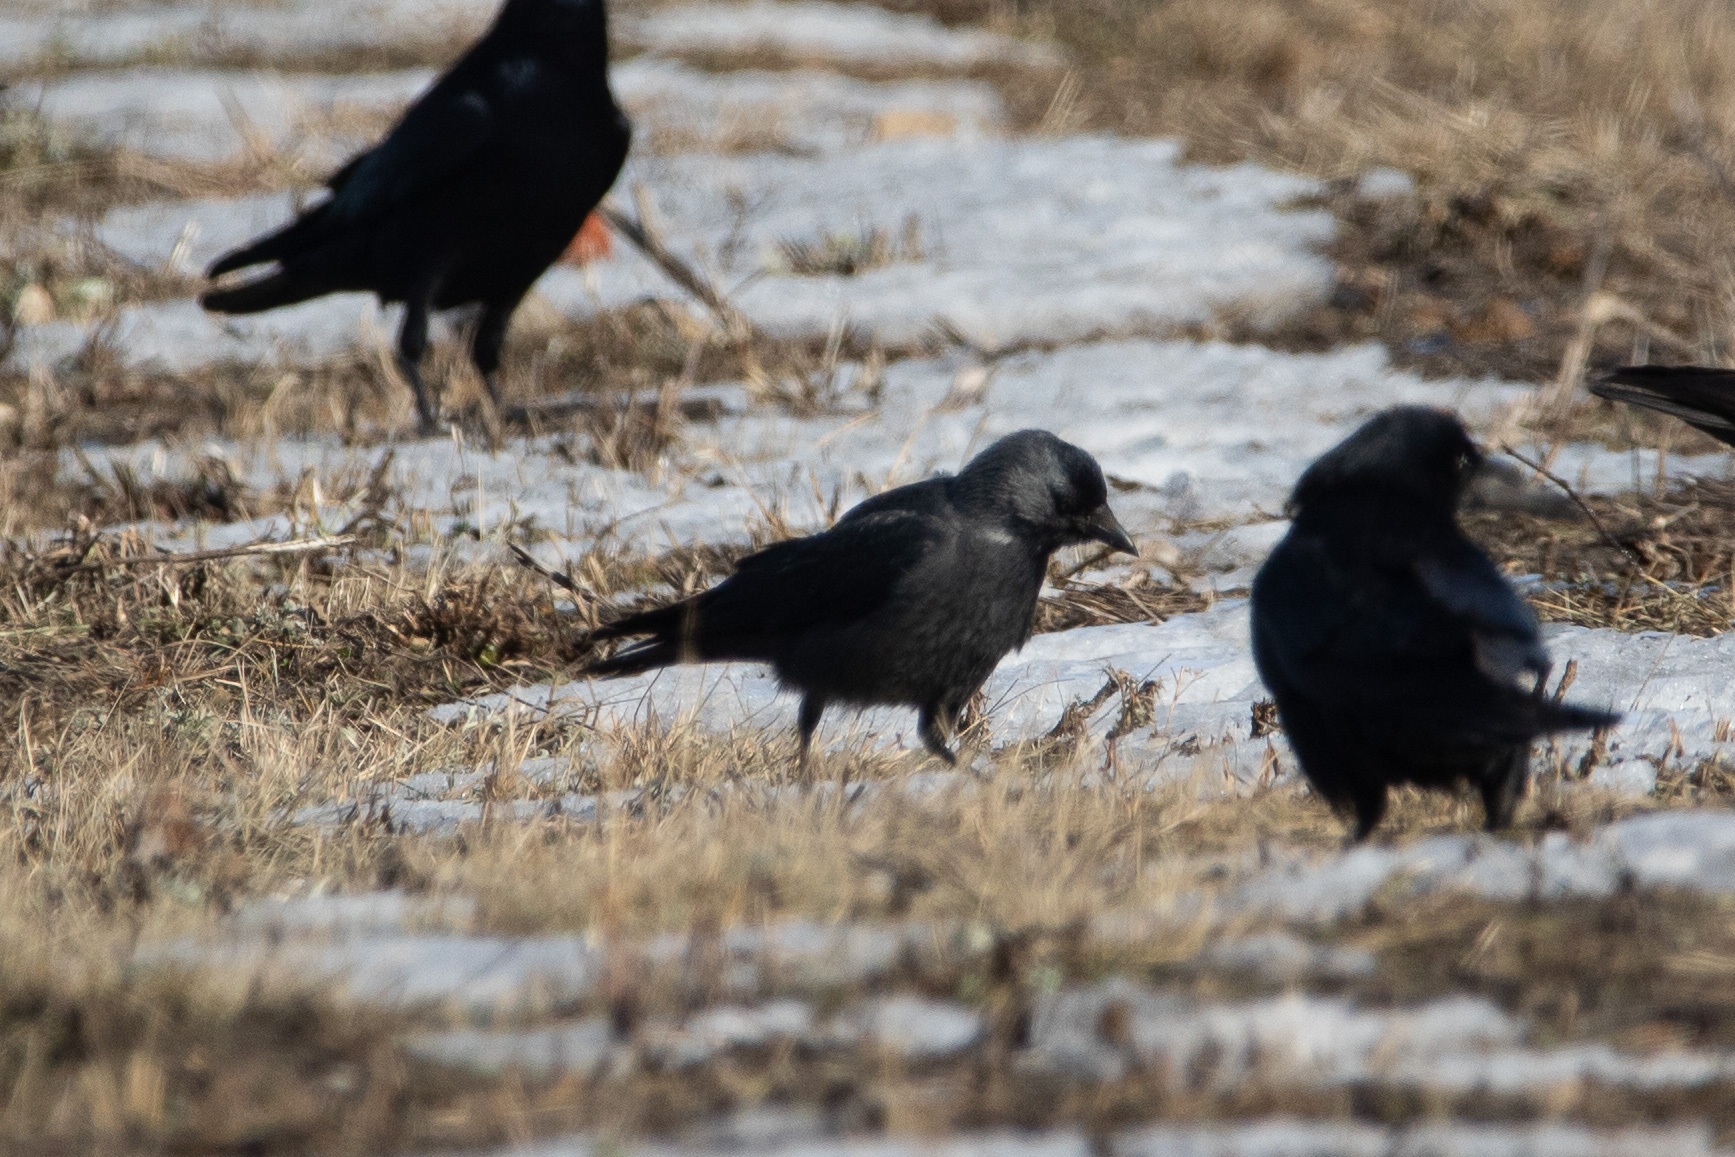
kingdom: Animalia
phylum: Chordata
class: Aves
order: Passeriformes
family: Corvidae
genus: Coloeus
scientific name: Coloeus monedula
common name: Western jackdaw
